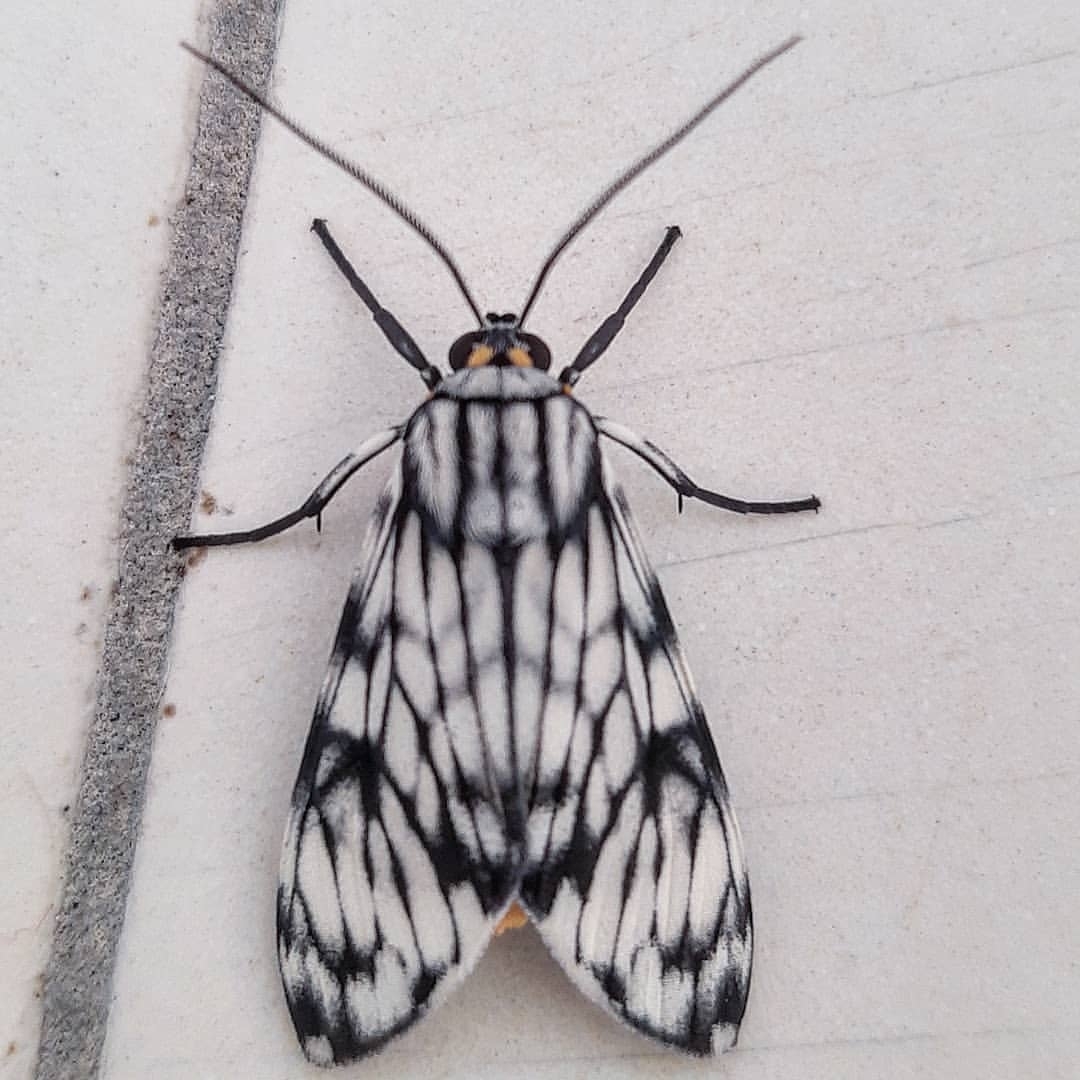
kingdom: Animalia
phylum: Arthropoda
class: Insecta
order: Lepidoptera
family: Erebidae
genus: Theages
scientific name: Theages xantura
